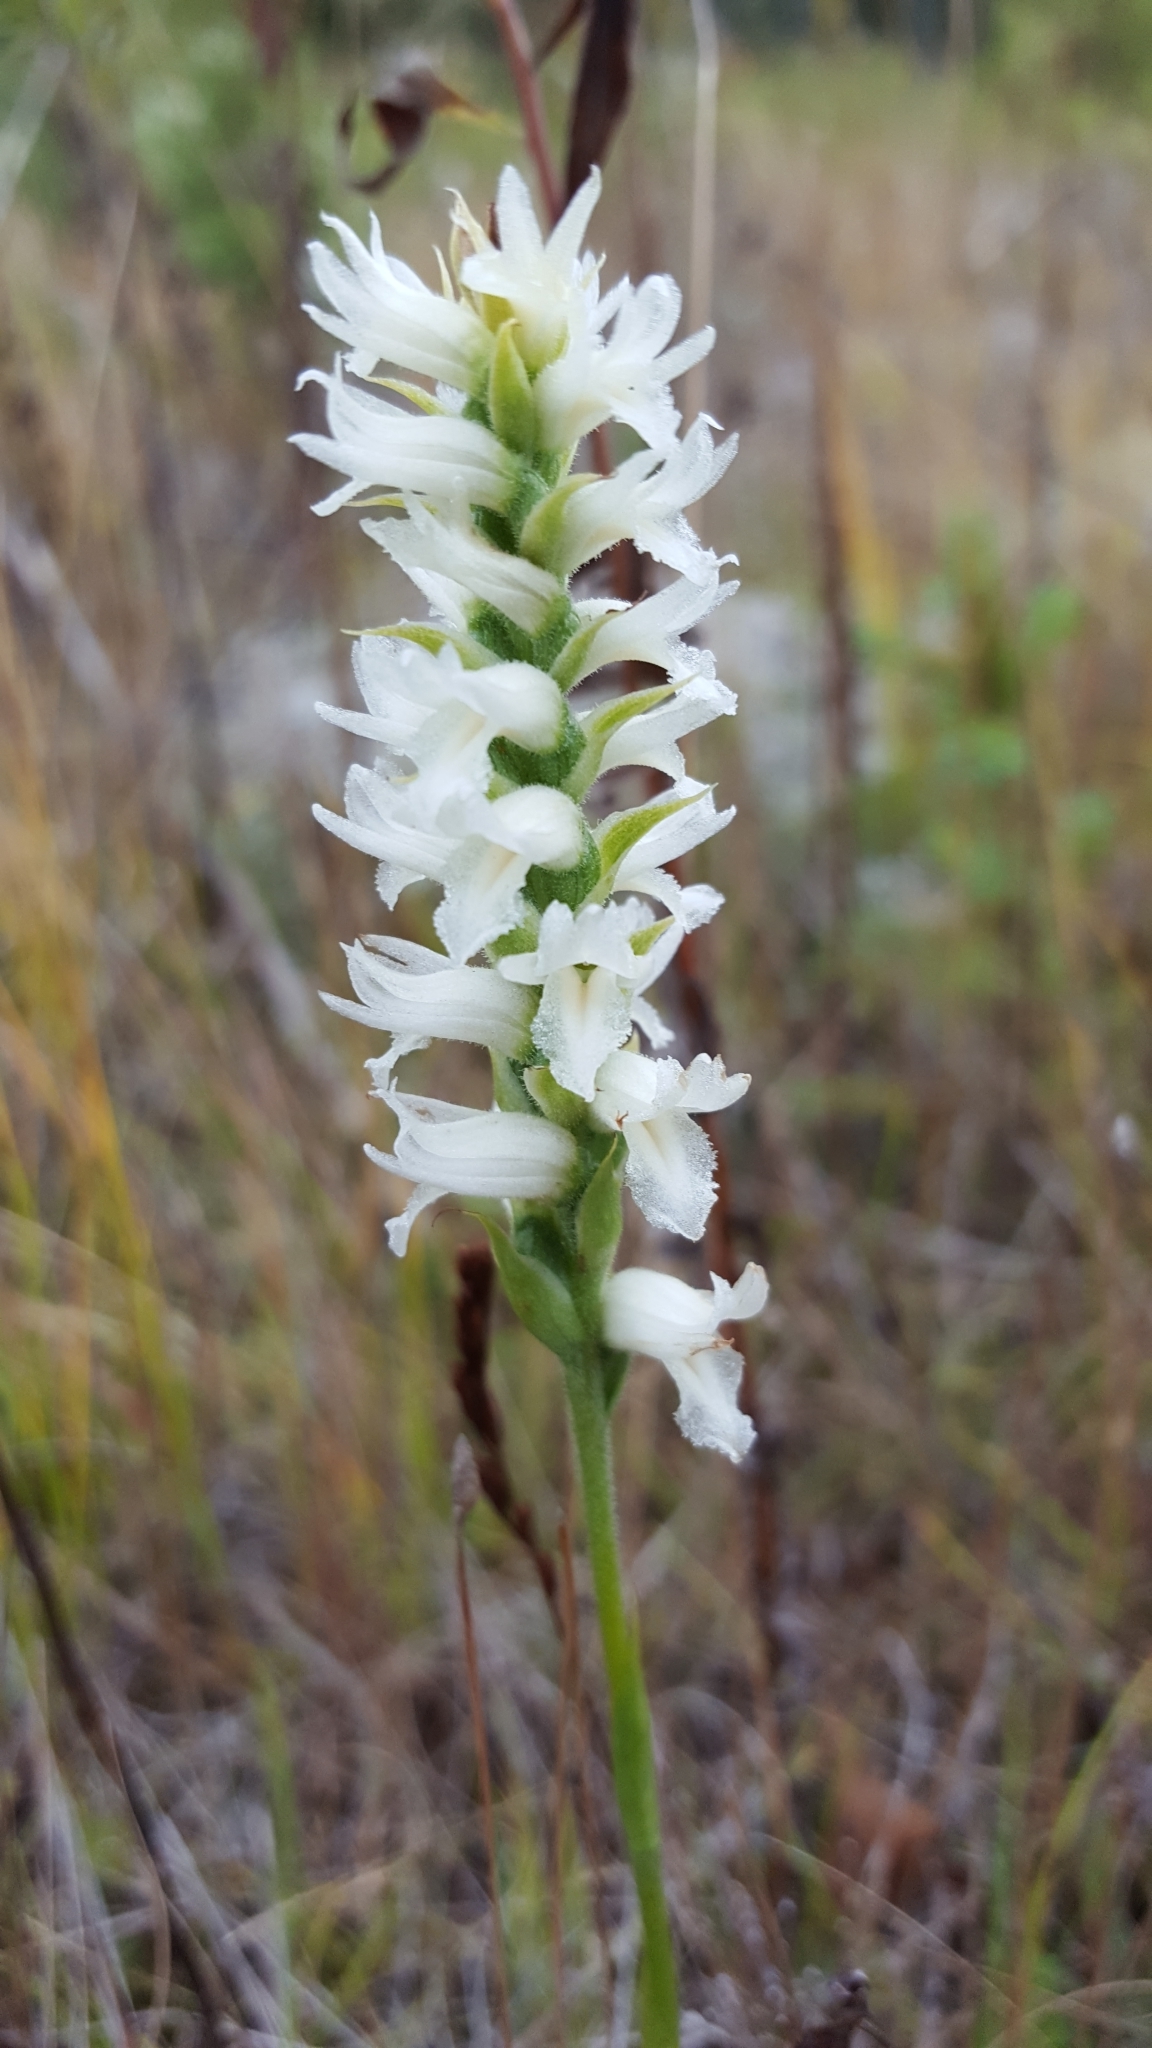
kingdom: Plantae
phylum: Tracheophyta
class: Liliopsida
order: Asparagales
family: Orchidaceae
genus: Spiranthes
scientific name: Spiranthes incurva
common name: Sphinx ladies'-tresses
